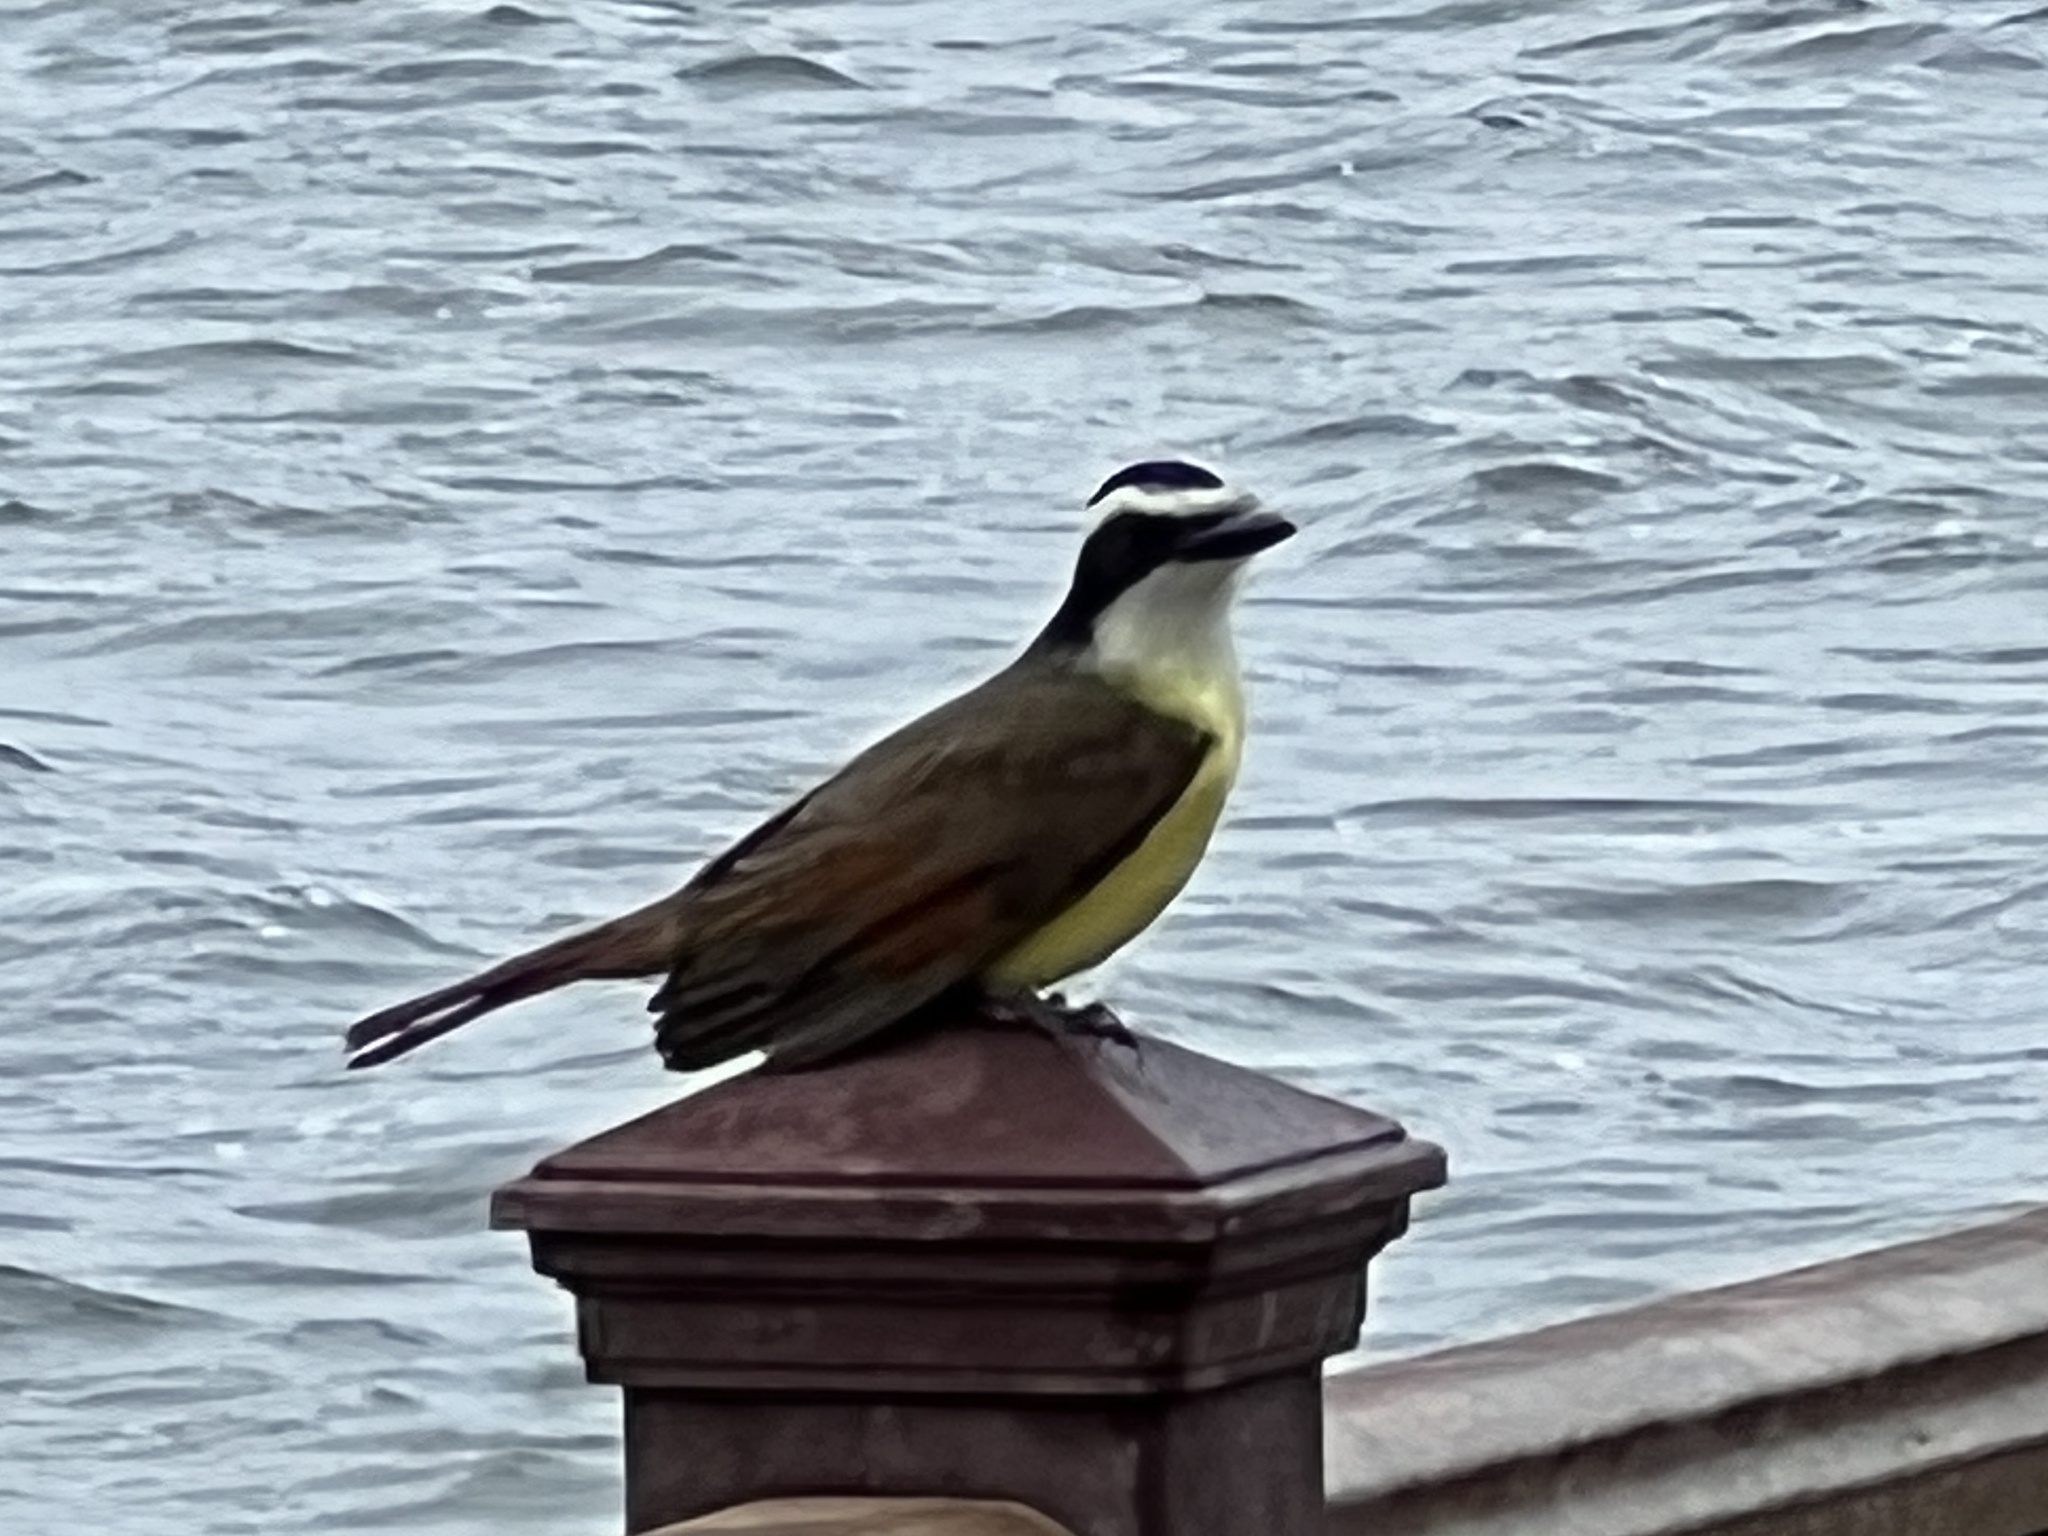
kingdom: Animalia
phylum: Chordata
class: Aves
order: Passeriformes
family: Tyrannidae
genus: Pitangus
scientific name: Pitangus sulphuratus
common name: Great kiskadee
